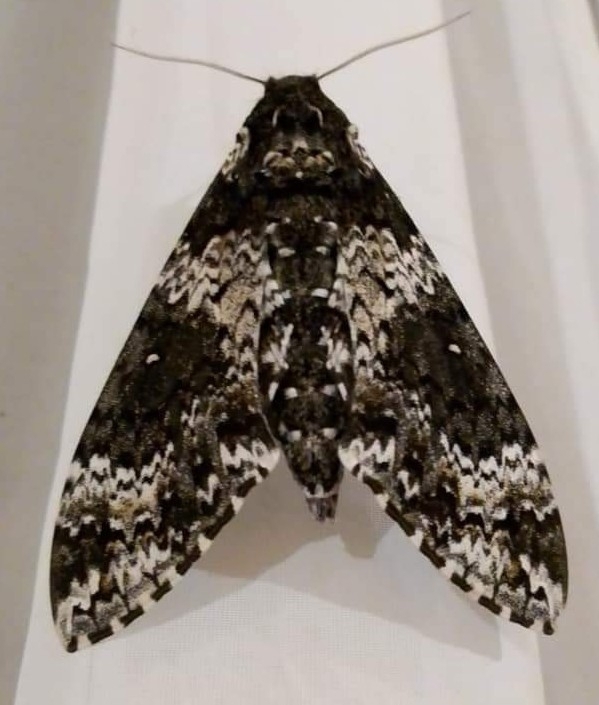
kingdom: Animalia
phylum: Arthropoda
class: Insecta
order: Lepidoptera
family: Sphingidae
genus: Manduca
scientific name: Manduca rustica
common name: Rustic sphinx
